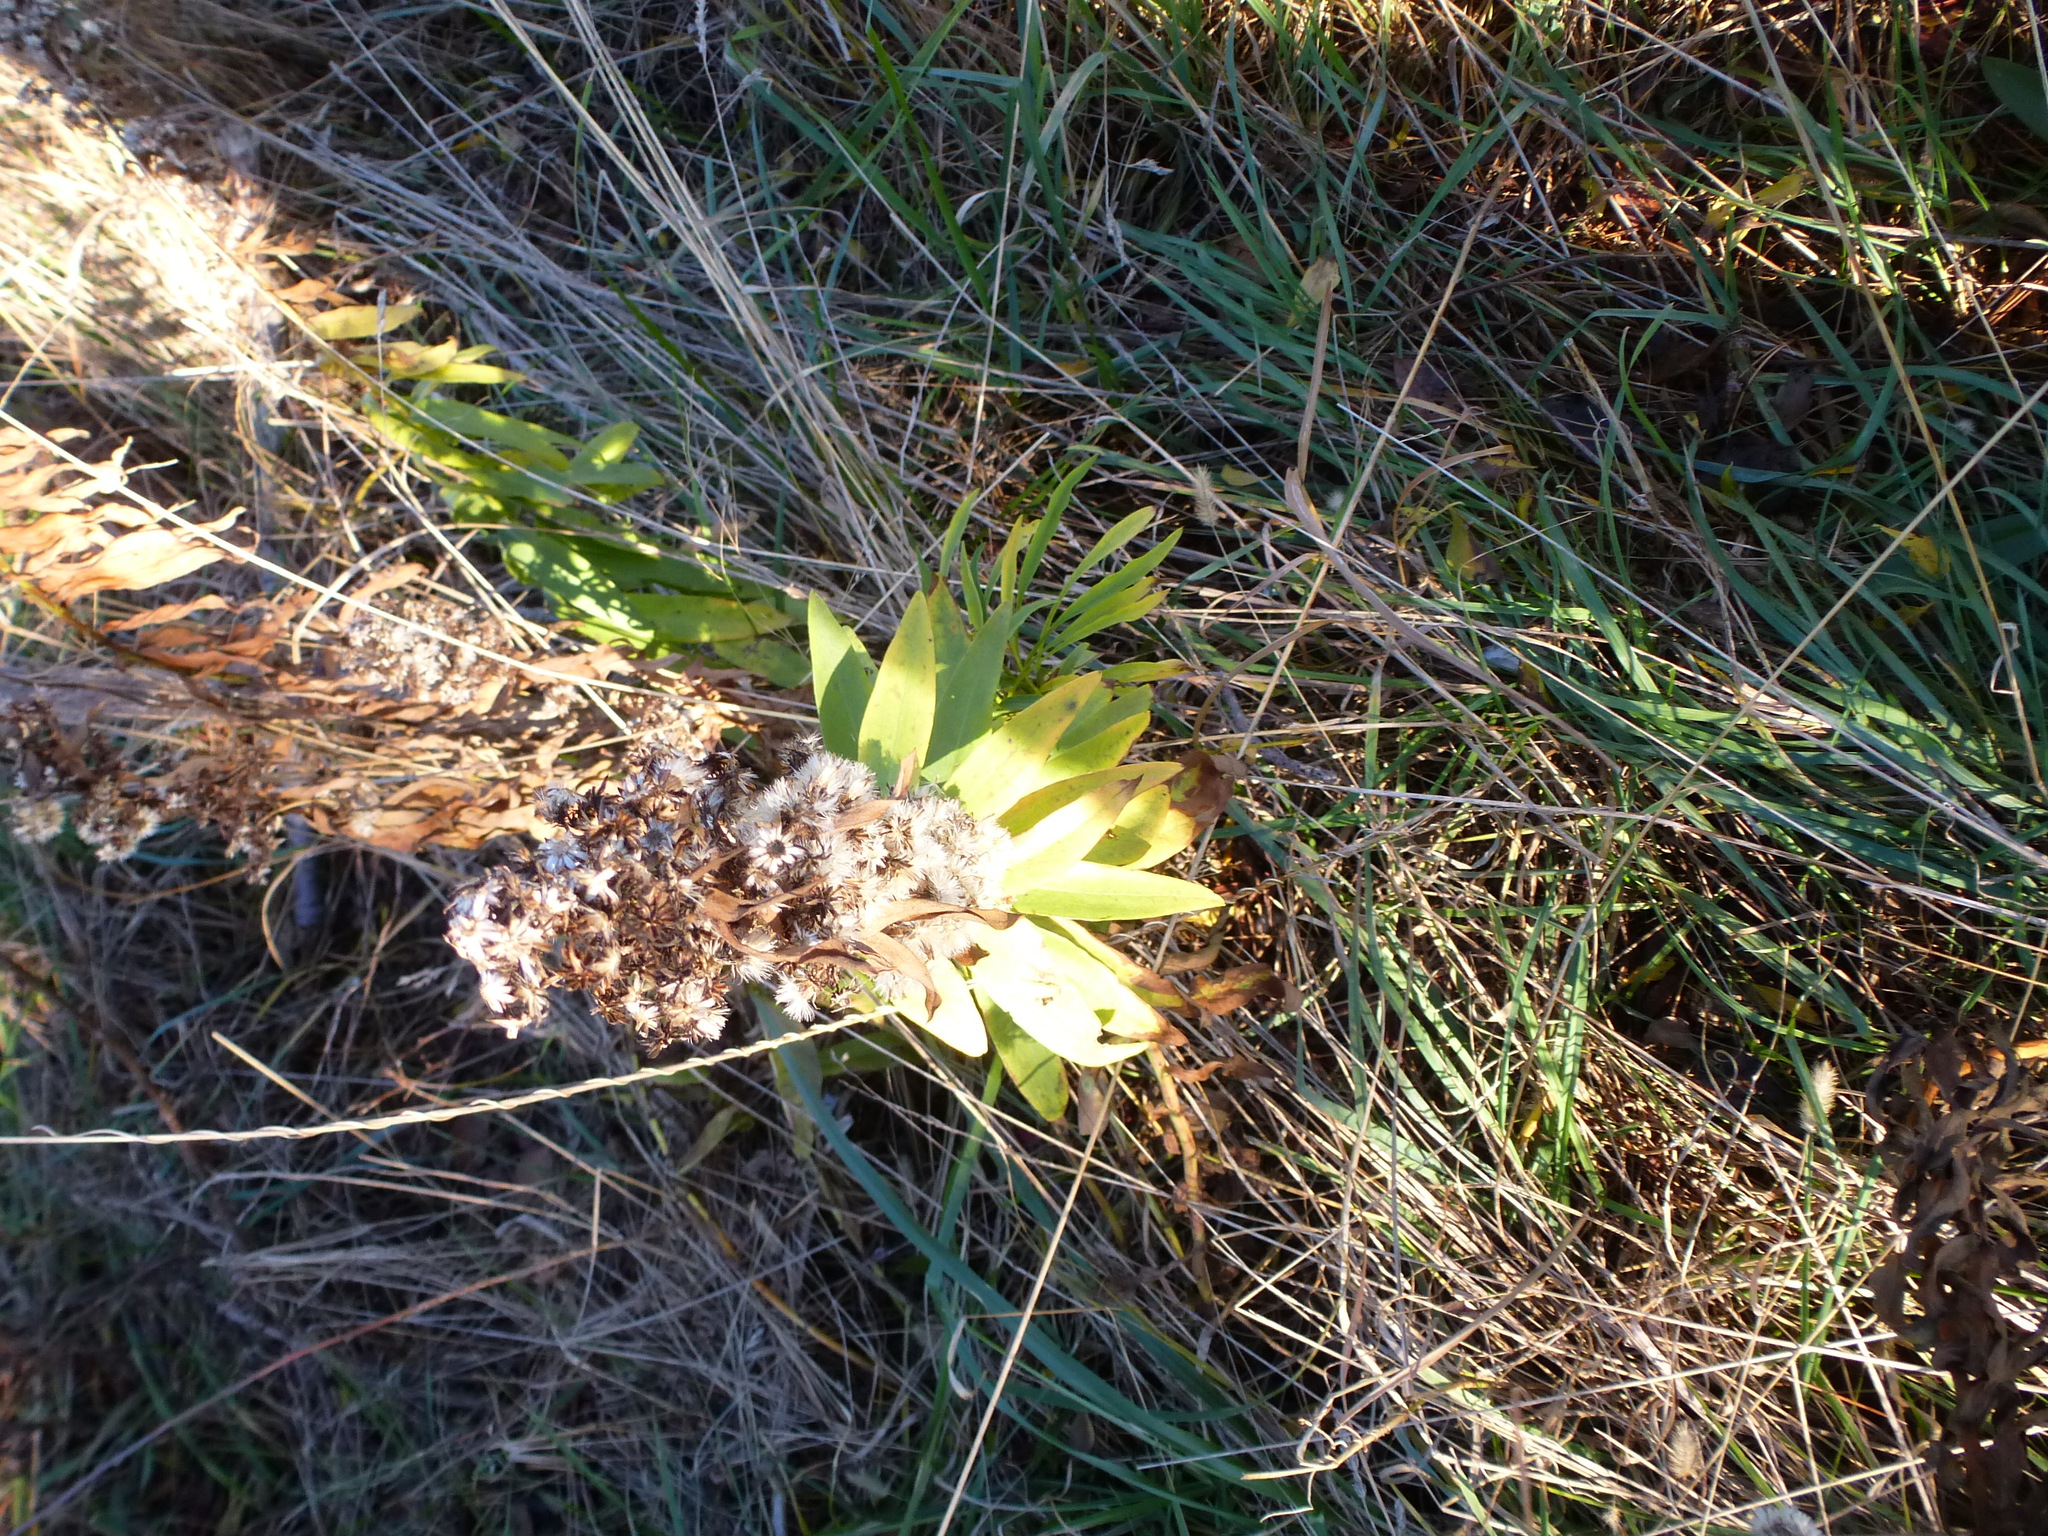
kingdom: Plantae
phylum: Tracheophyta
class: Magnoliopsida
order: Asterales
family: Asteraceae
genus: Solidago
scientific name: Solidago sempervirens
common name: Salt-marsh goldenrod
